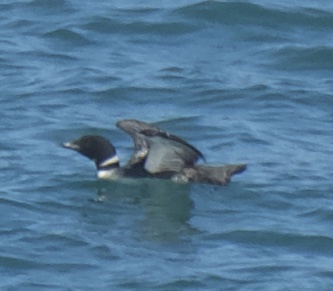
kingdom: Animalia
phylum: Chordata
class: Aves
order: Gaviiformes
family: Gaviidae
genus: Gavia
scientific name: Gavia immer
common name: Common loon
